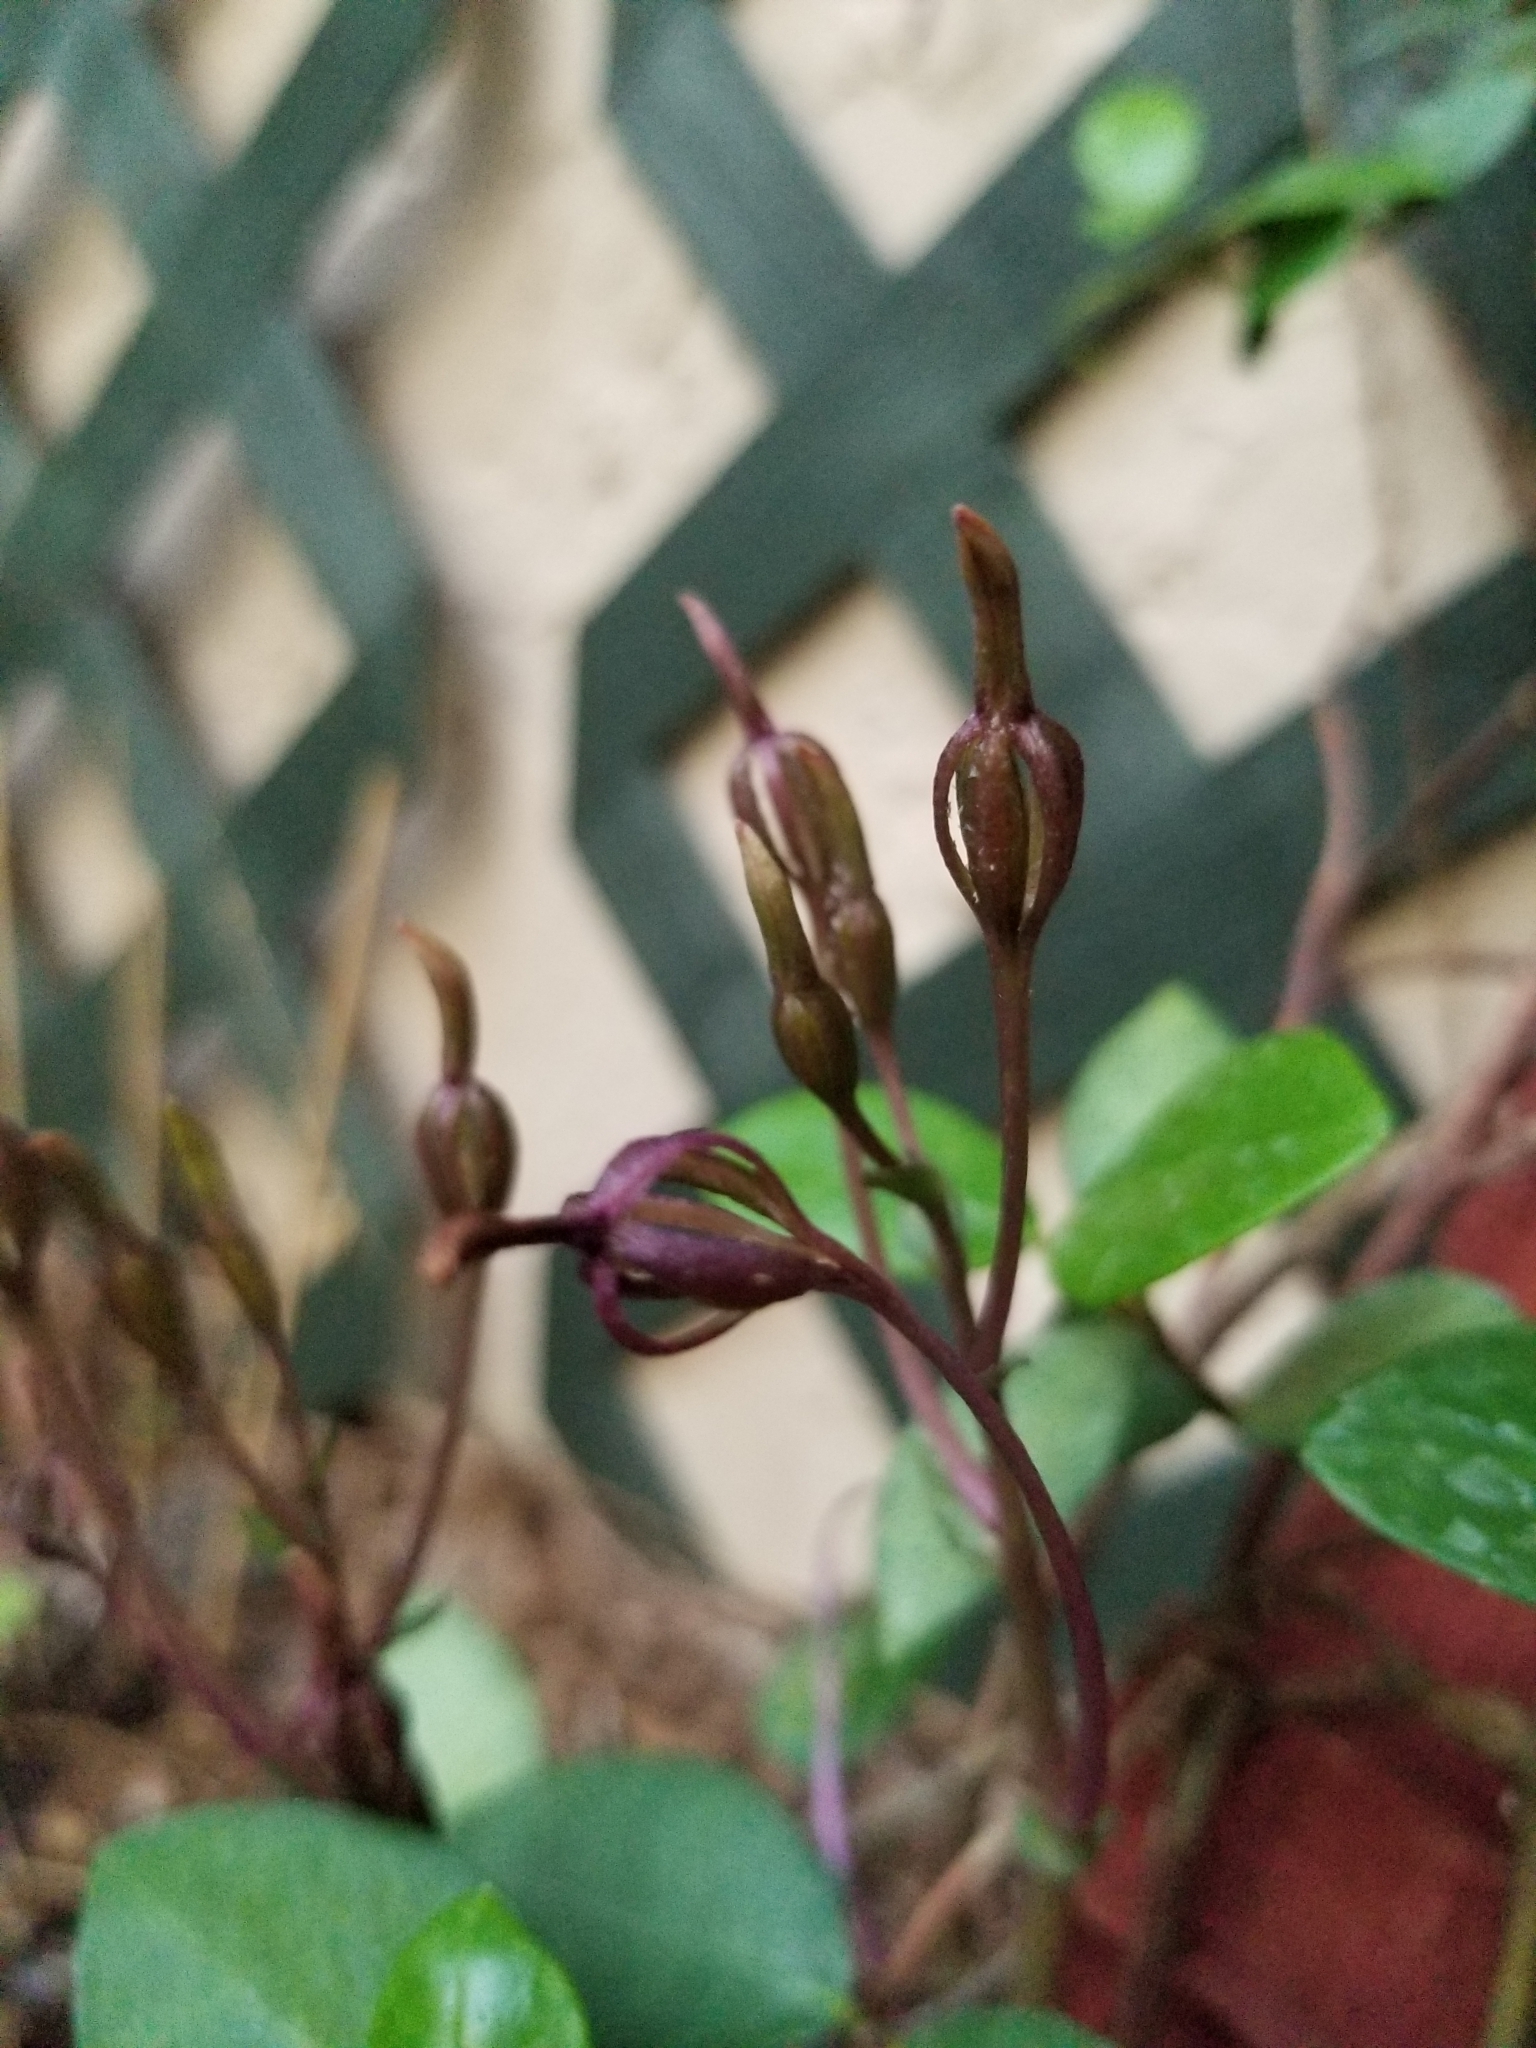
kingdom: Plantae
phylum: Tracheophyta
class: Liliopsida
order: Asparagales
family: Orchidaceae
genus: Triphora
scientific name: Triphora gentianoides
